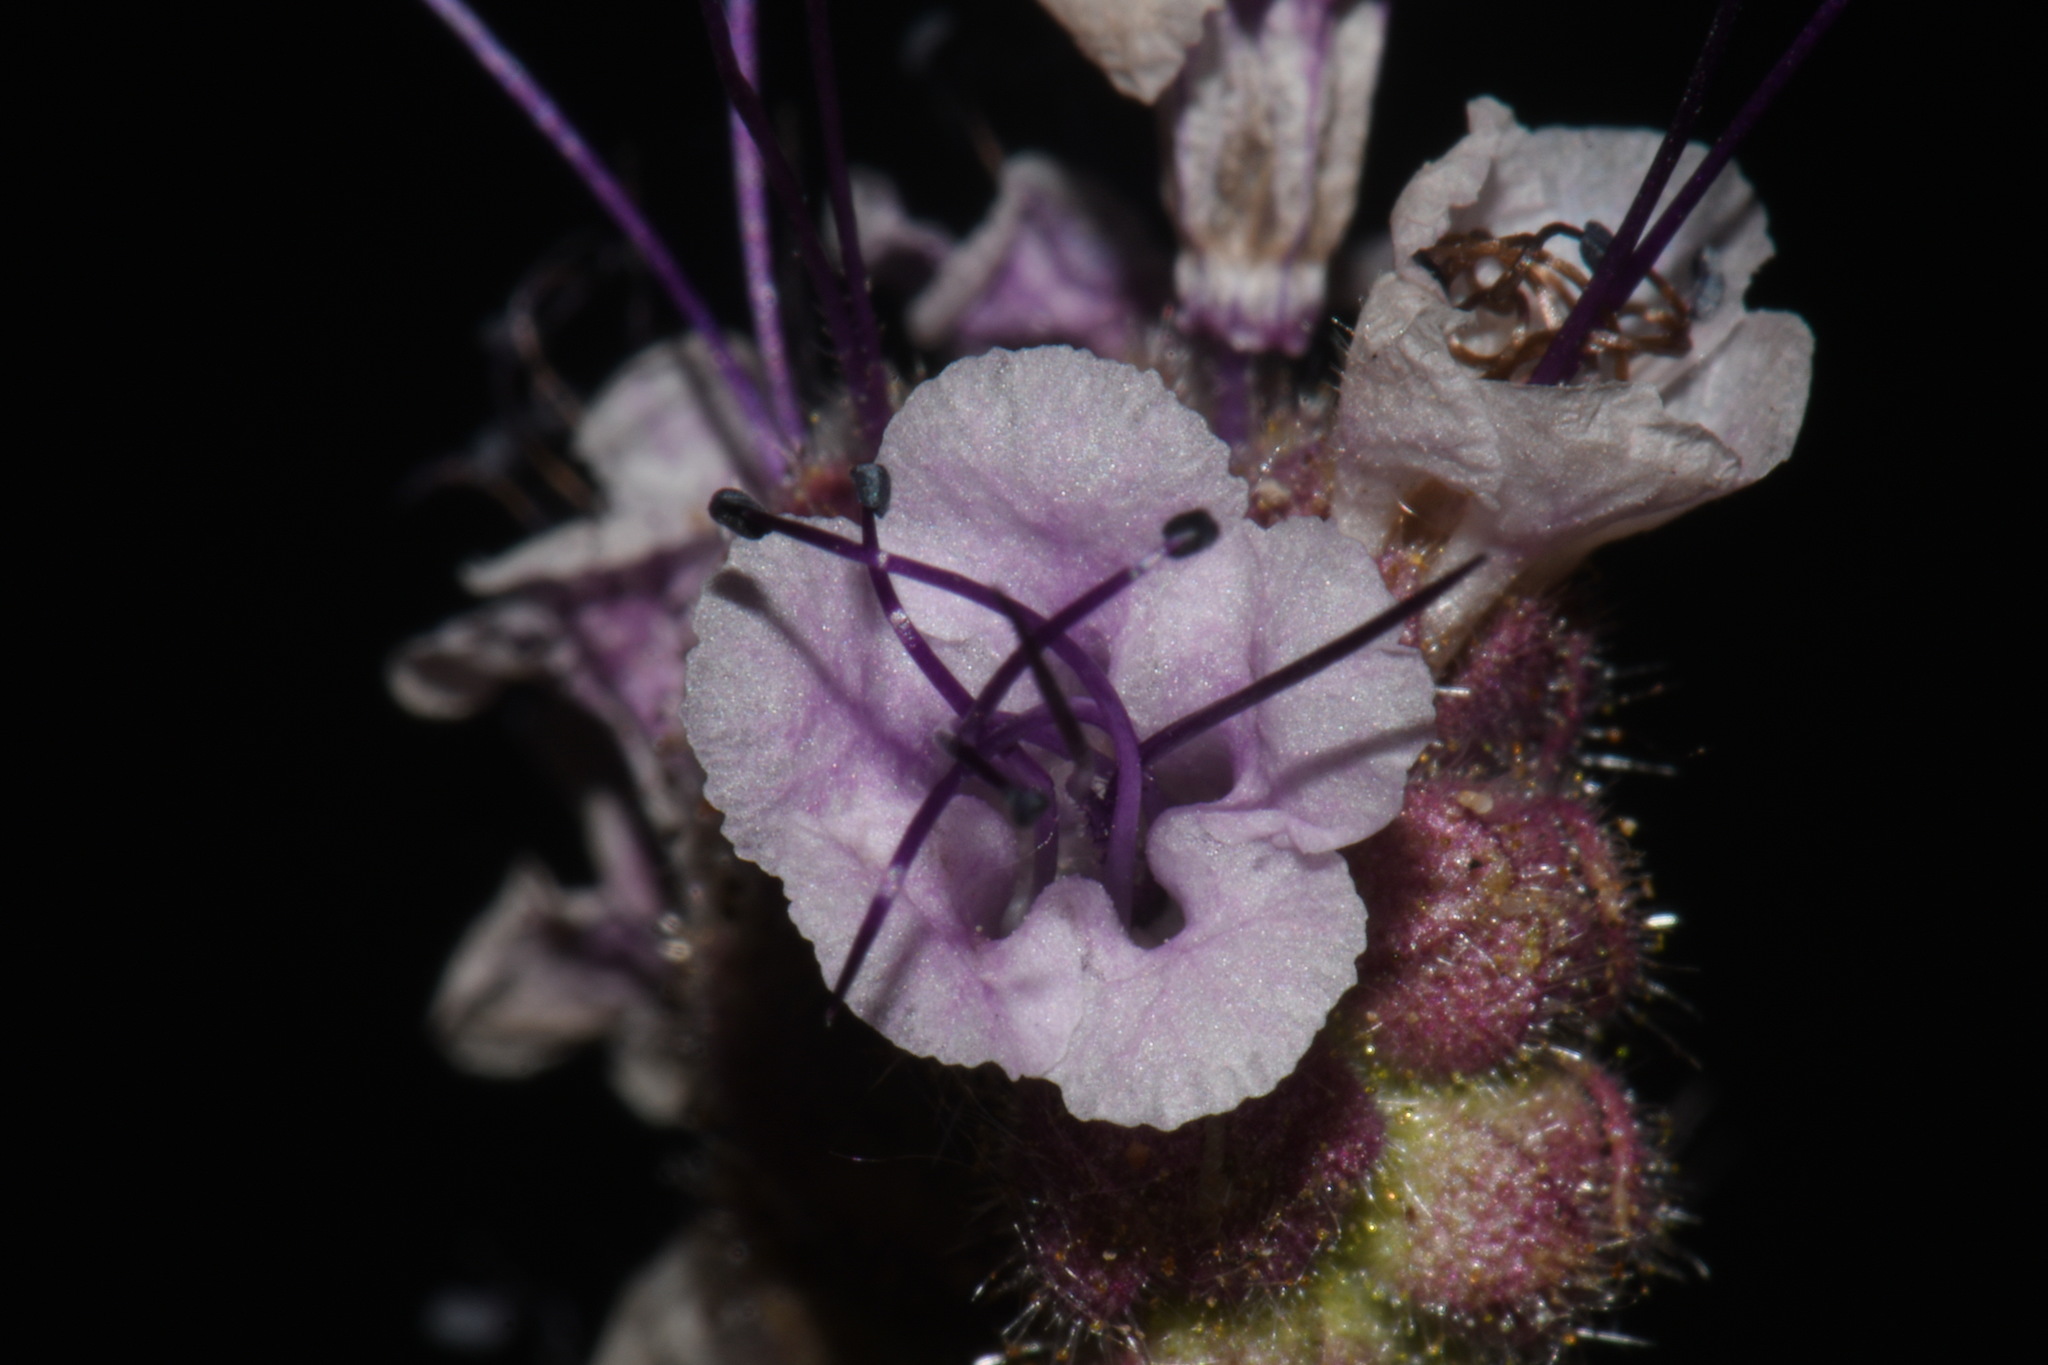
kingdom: Plantae
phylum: Tracheophyta
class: Magnoliopsida
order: Boraginales
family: Hydrophyllaceae
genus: Phacelia
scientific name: Phacelia integrifolia
